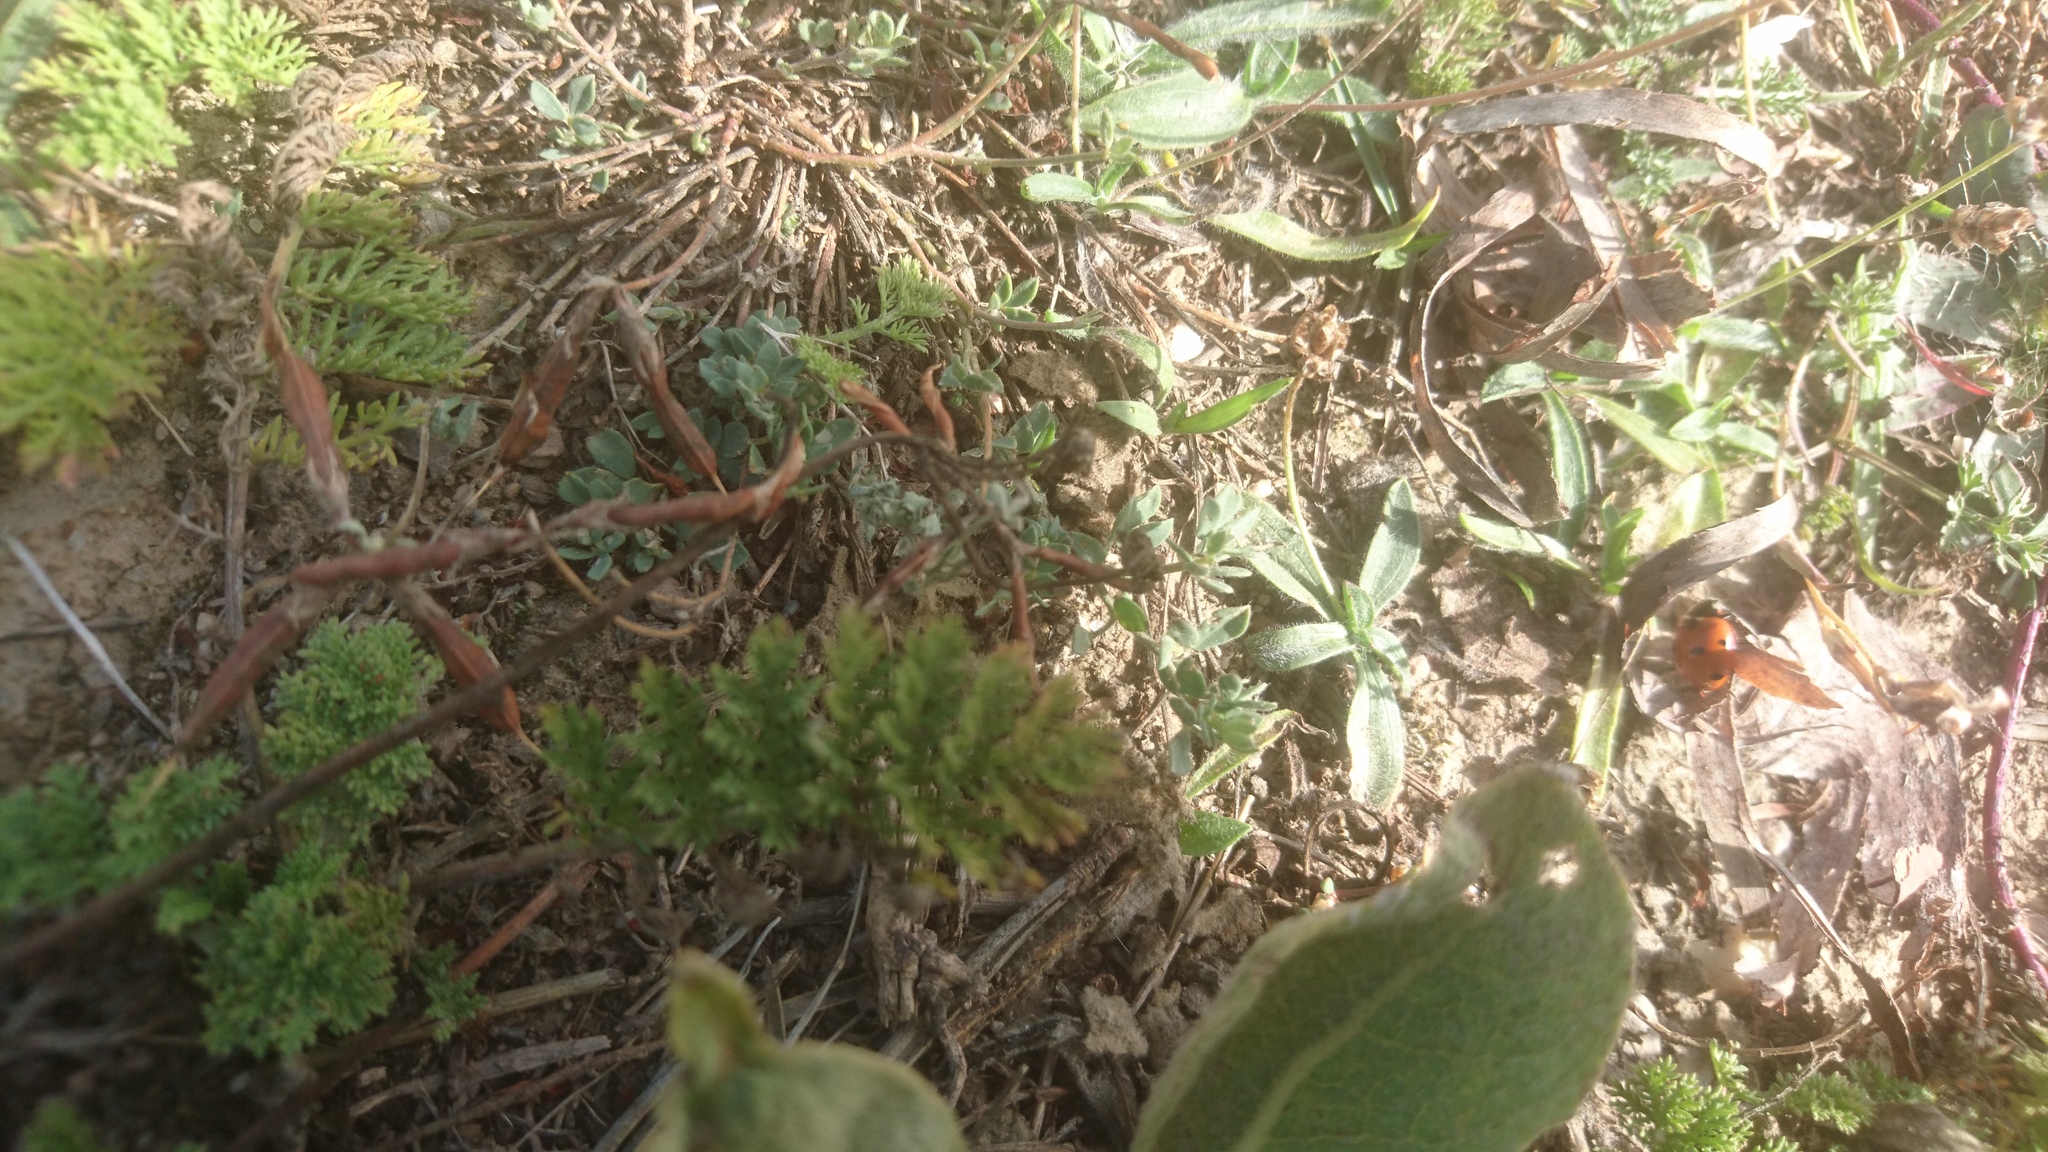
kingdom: Animalia
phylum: Arthropoda
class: Insecta
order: Coleoptera
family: Coccinellidae
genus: Coccinella
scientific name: Coccinella septempunctata
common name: Sevenspotted lady beetle
